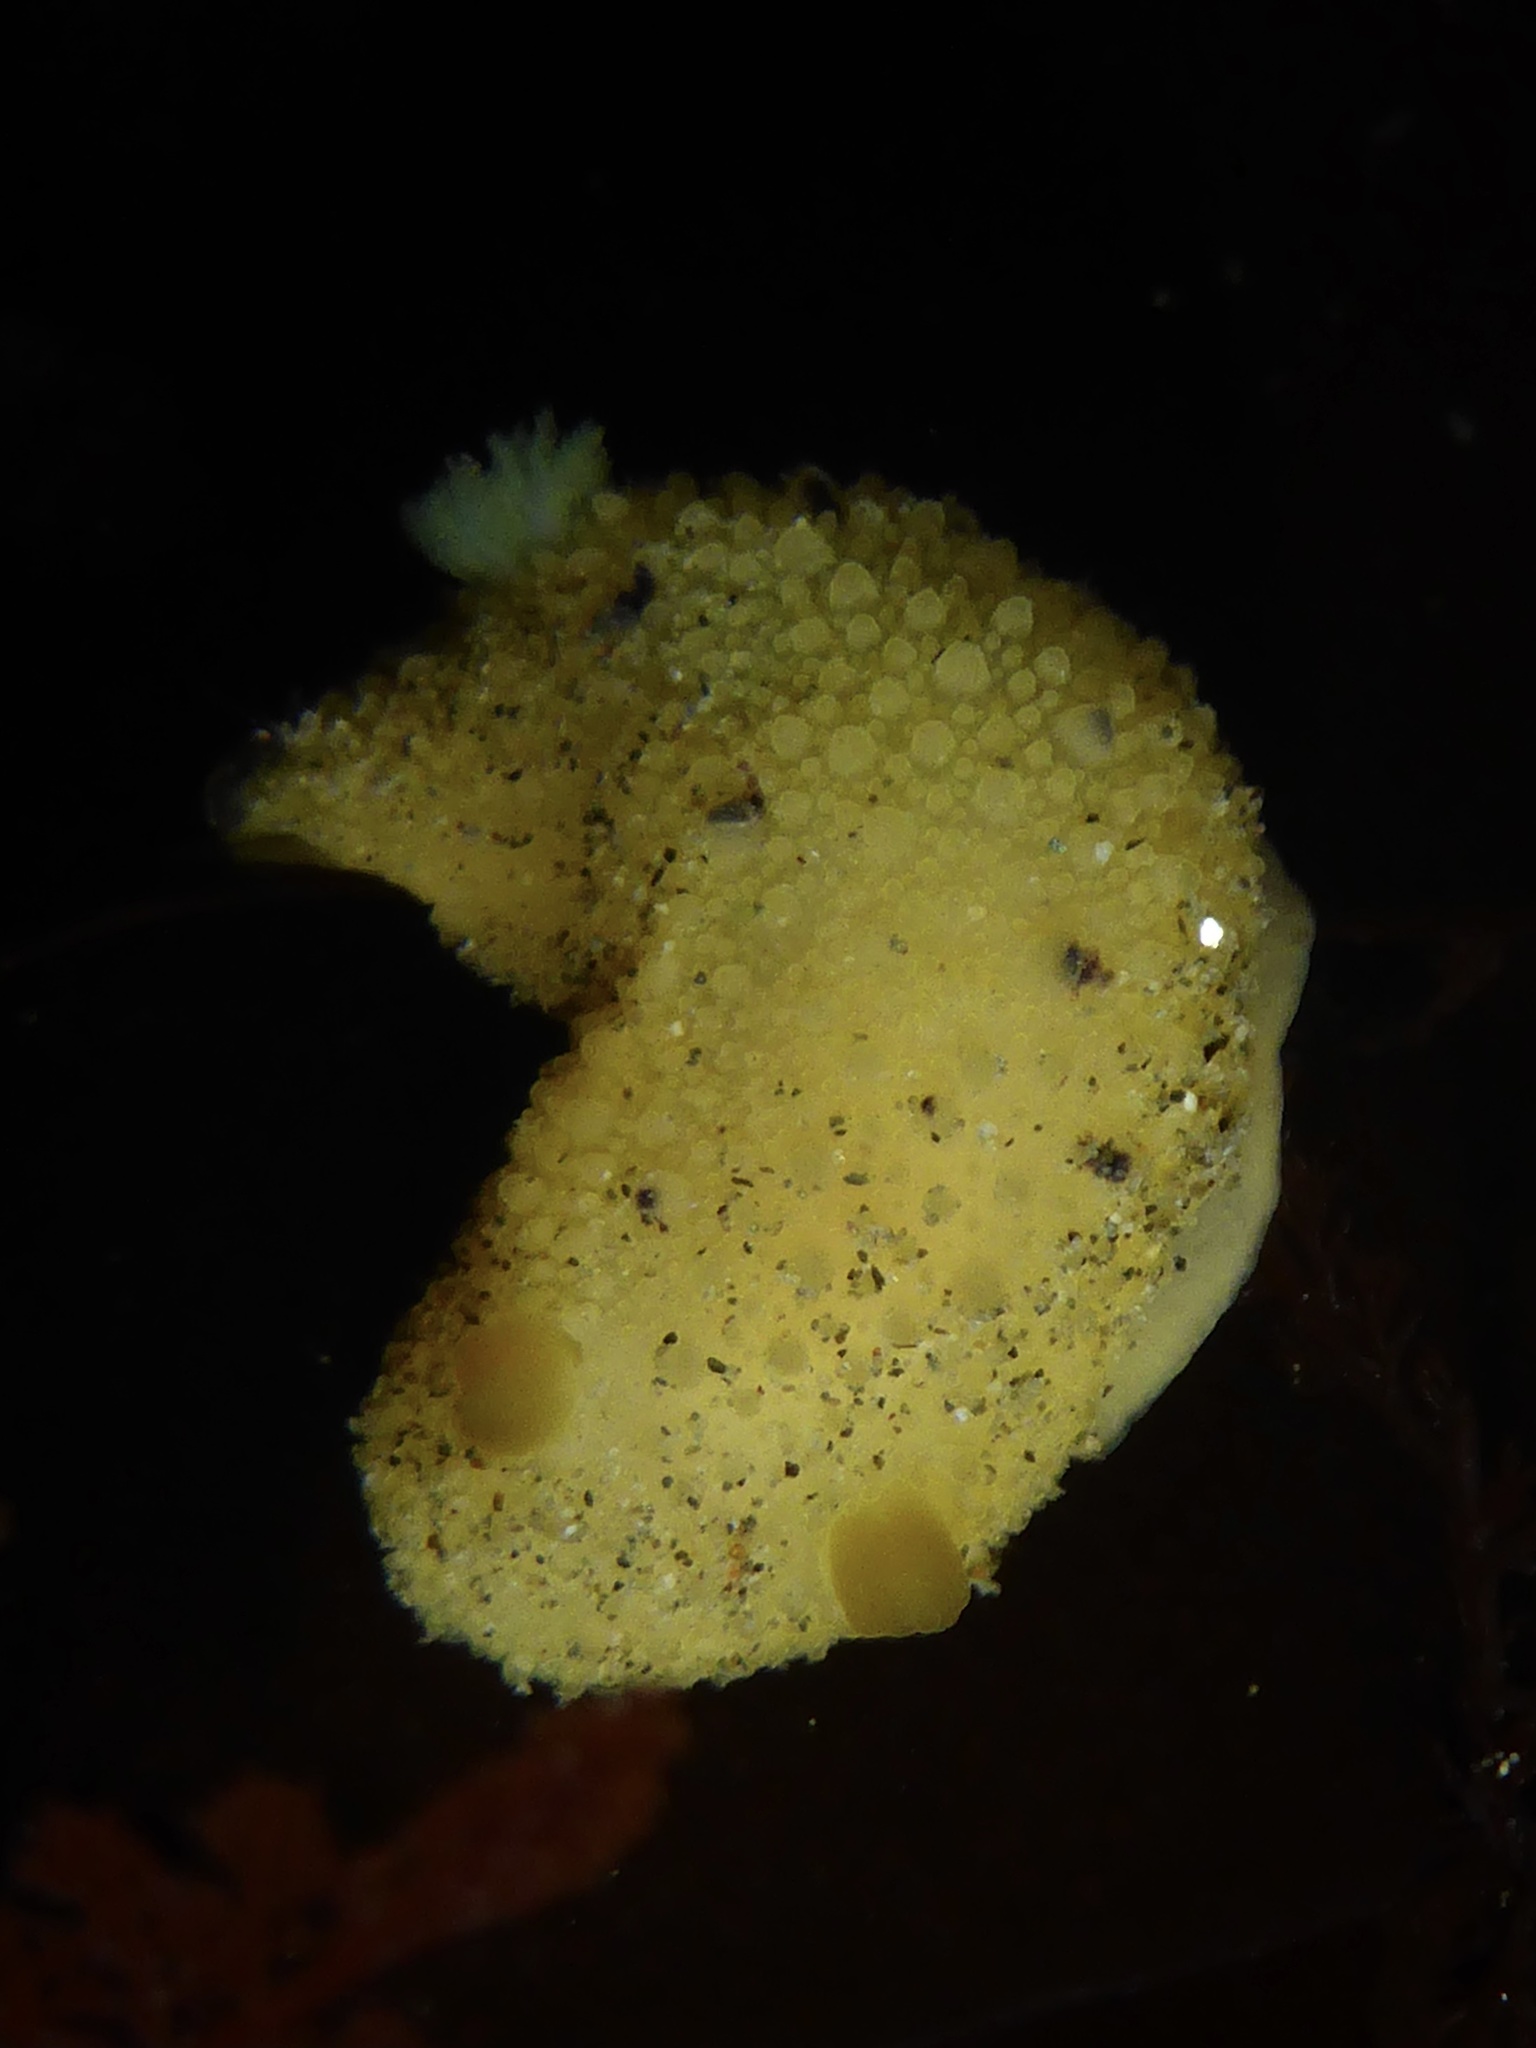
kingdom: Animalia
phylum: Mollusca
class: Gastropoda
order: Nudibranchia
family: Dorididae
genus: Doris
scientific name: Doris montereyensis
